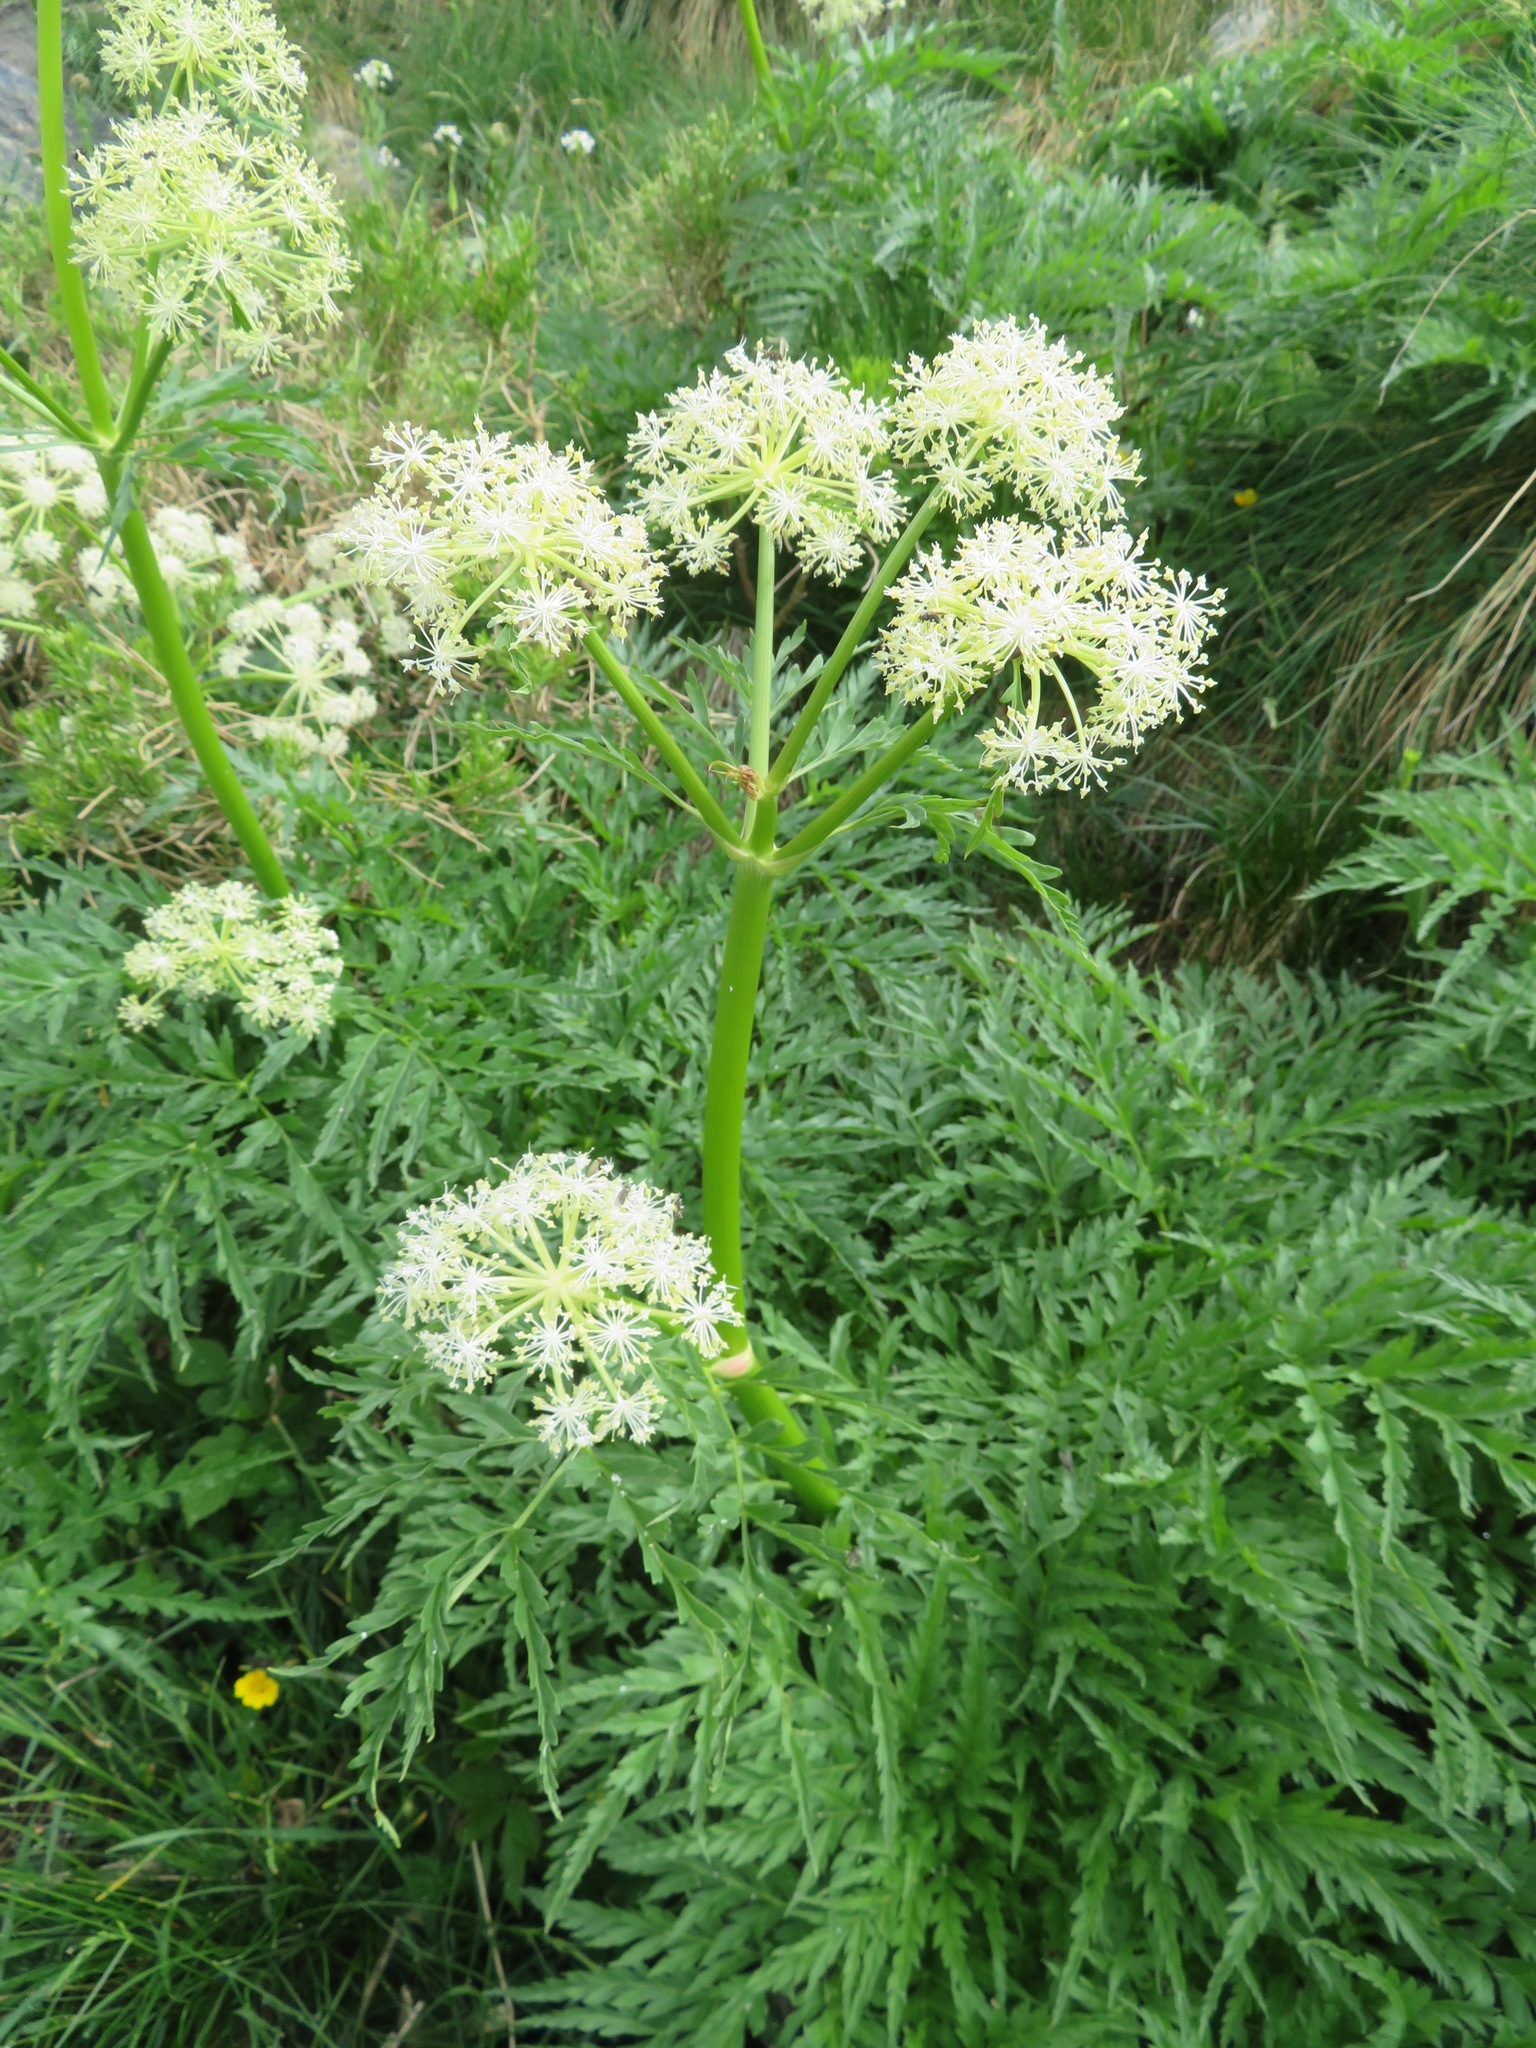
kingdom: Plantae
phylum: Tracheophyta
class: Magnoliopsida
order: Apiales
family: Apiaceae
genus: Molopospermum
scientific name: Molopospermum peloponnesiacum
